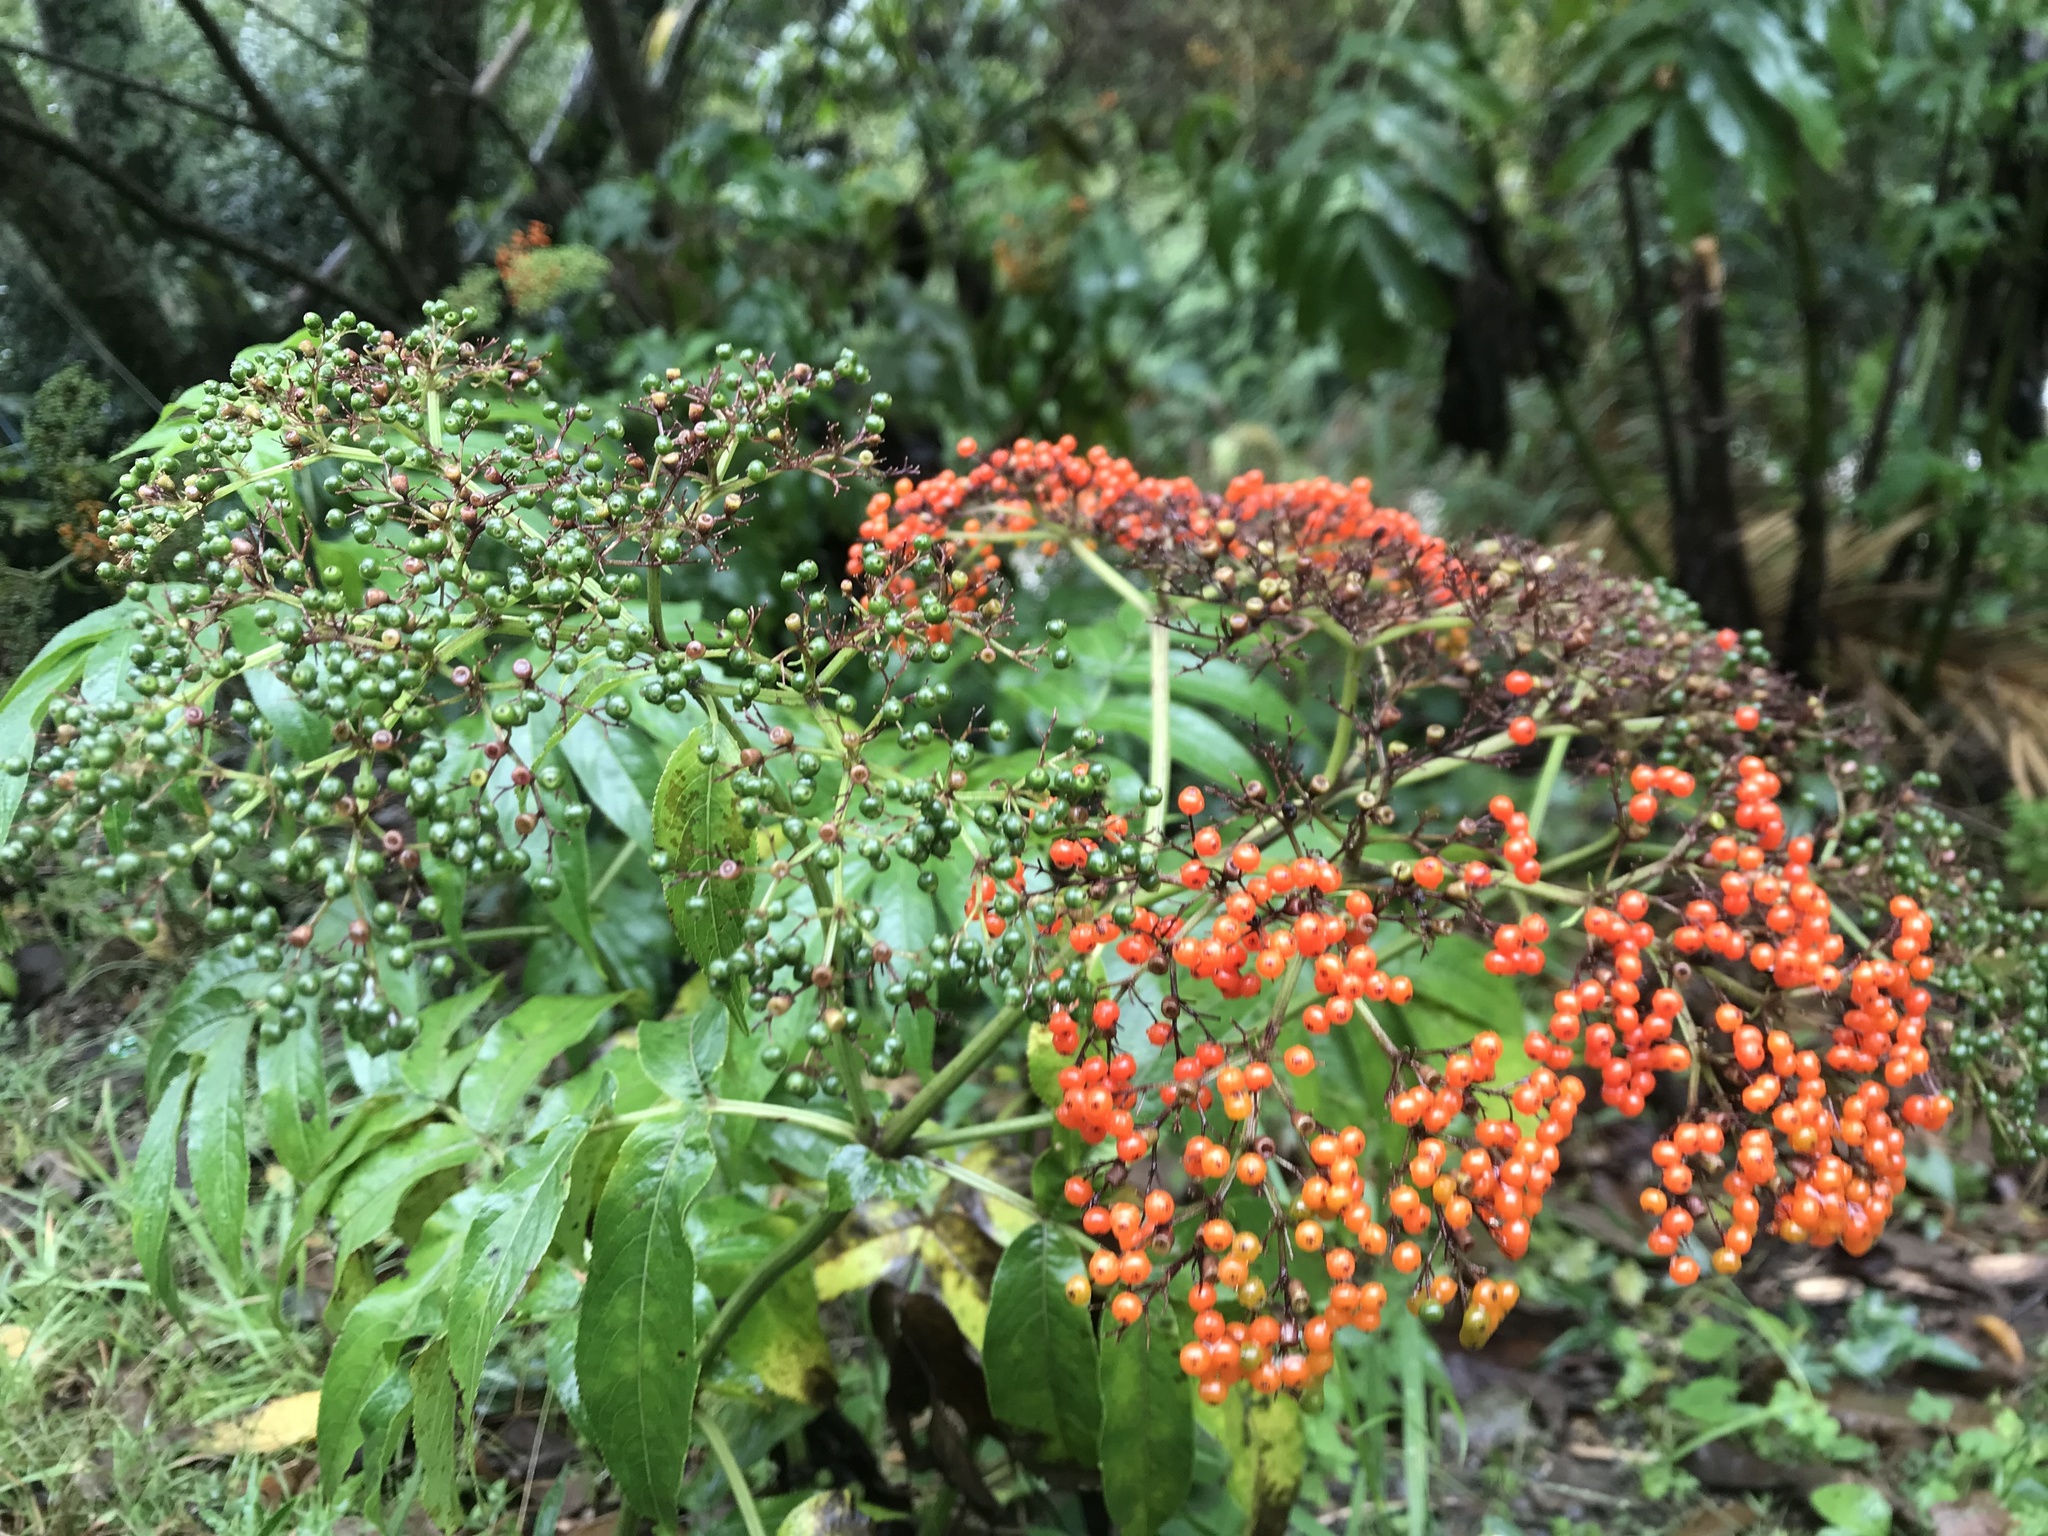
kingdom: Plantae
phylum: Tracheophyta
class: Magnoliopsida
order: Dipsacales
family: Viburnaceae
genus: Sambucus
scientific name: Sambucus javanica
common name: Chinese elder
